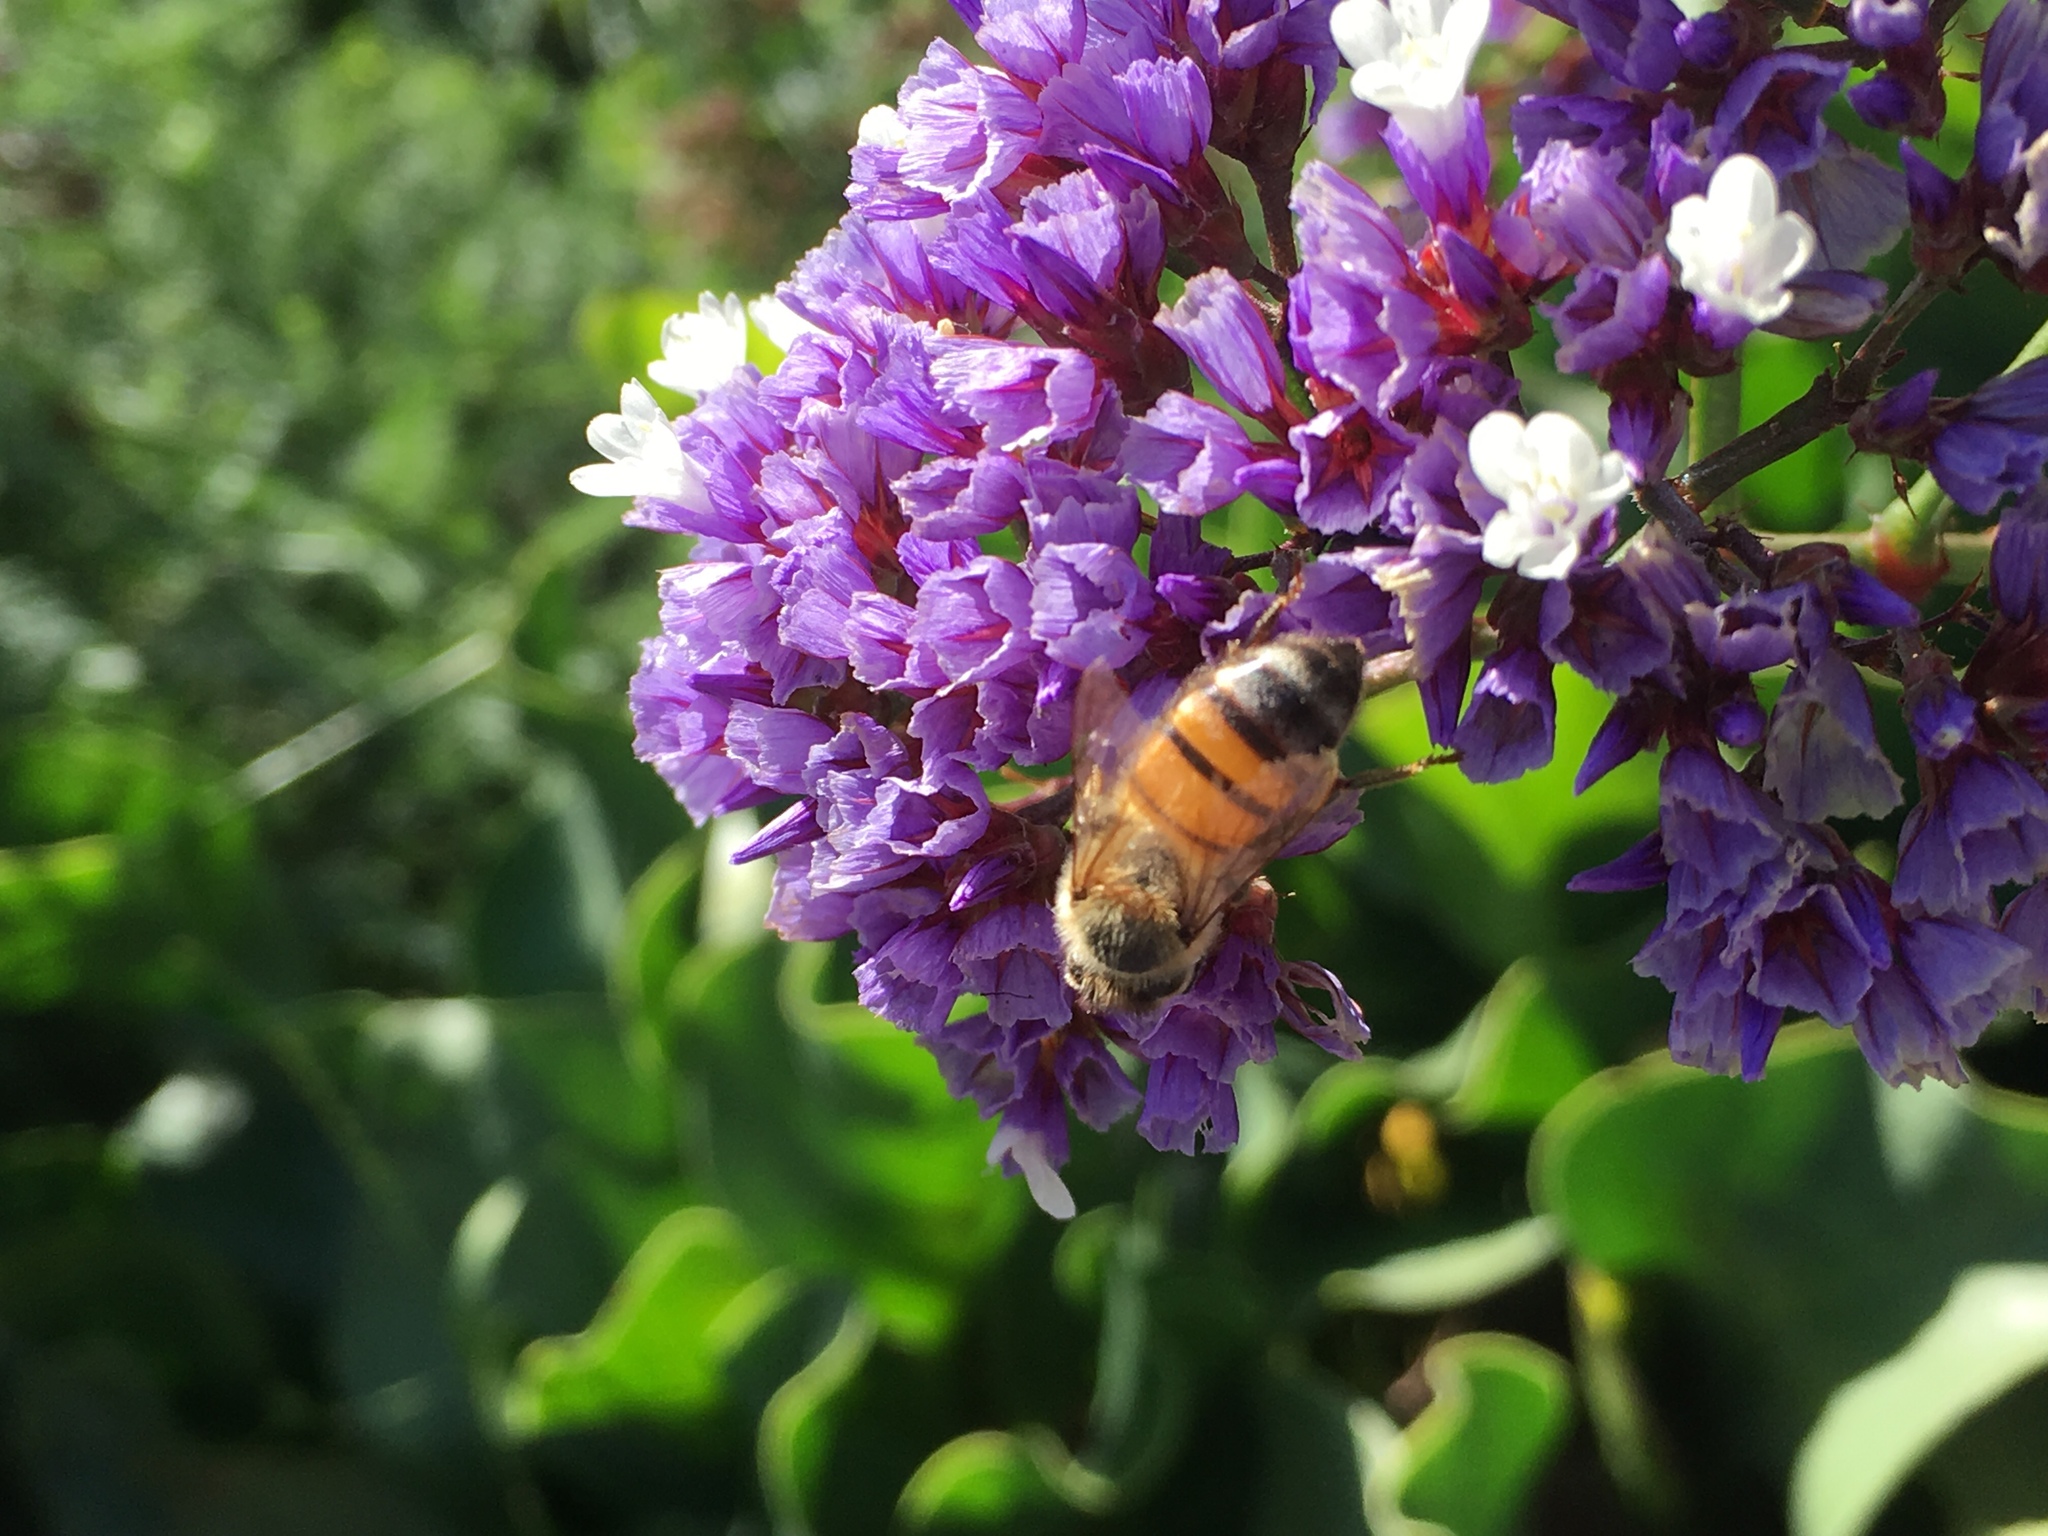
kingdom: Animalia
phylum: Arthropoda
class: Insecta
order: Hymenoptera
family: Apidae
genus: Apis
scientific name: Apis mellifera
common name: Honey bee
